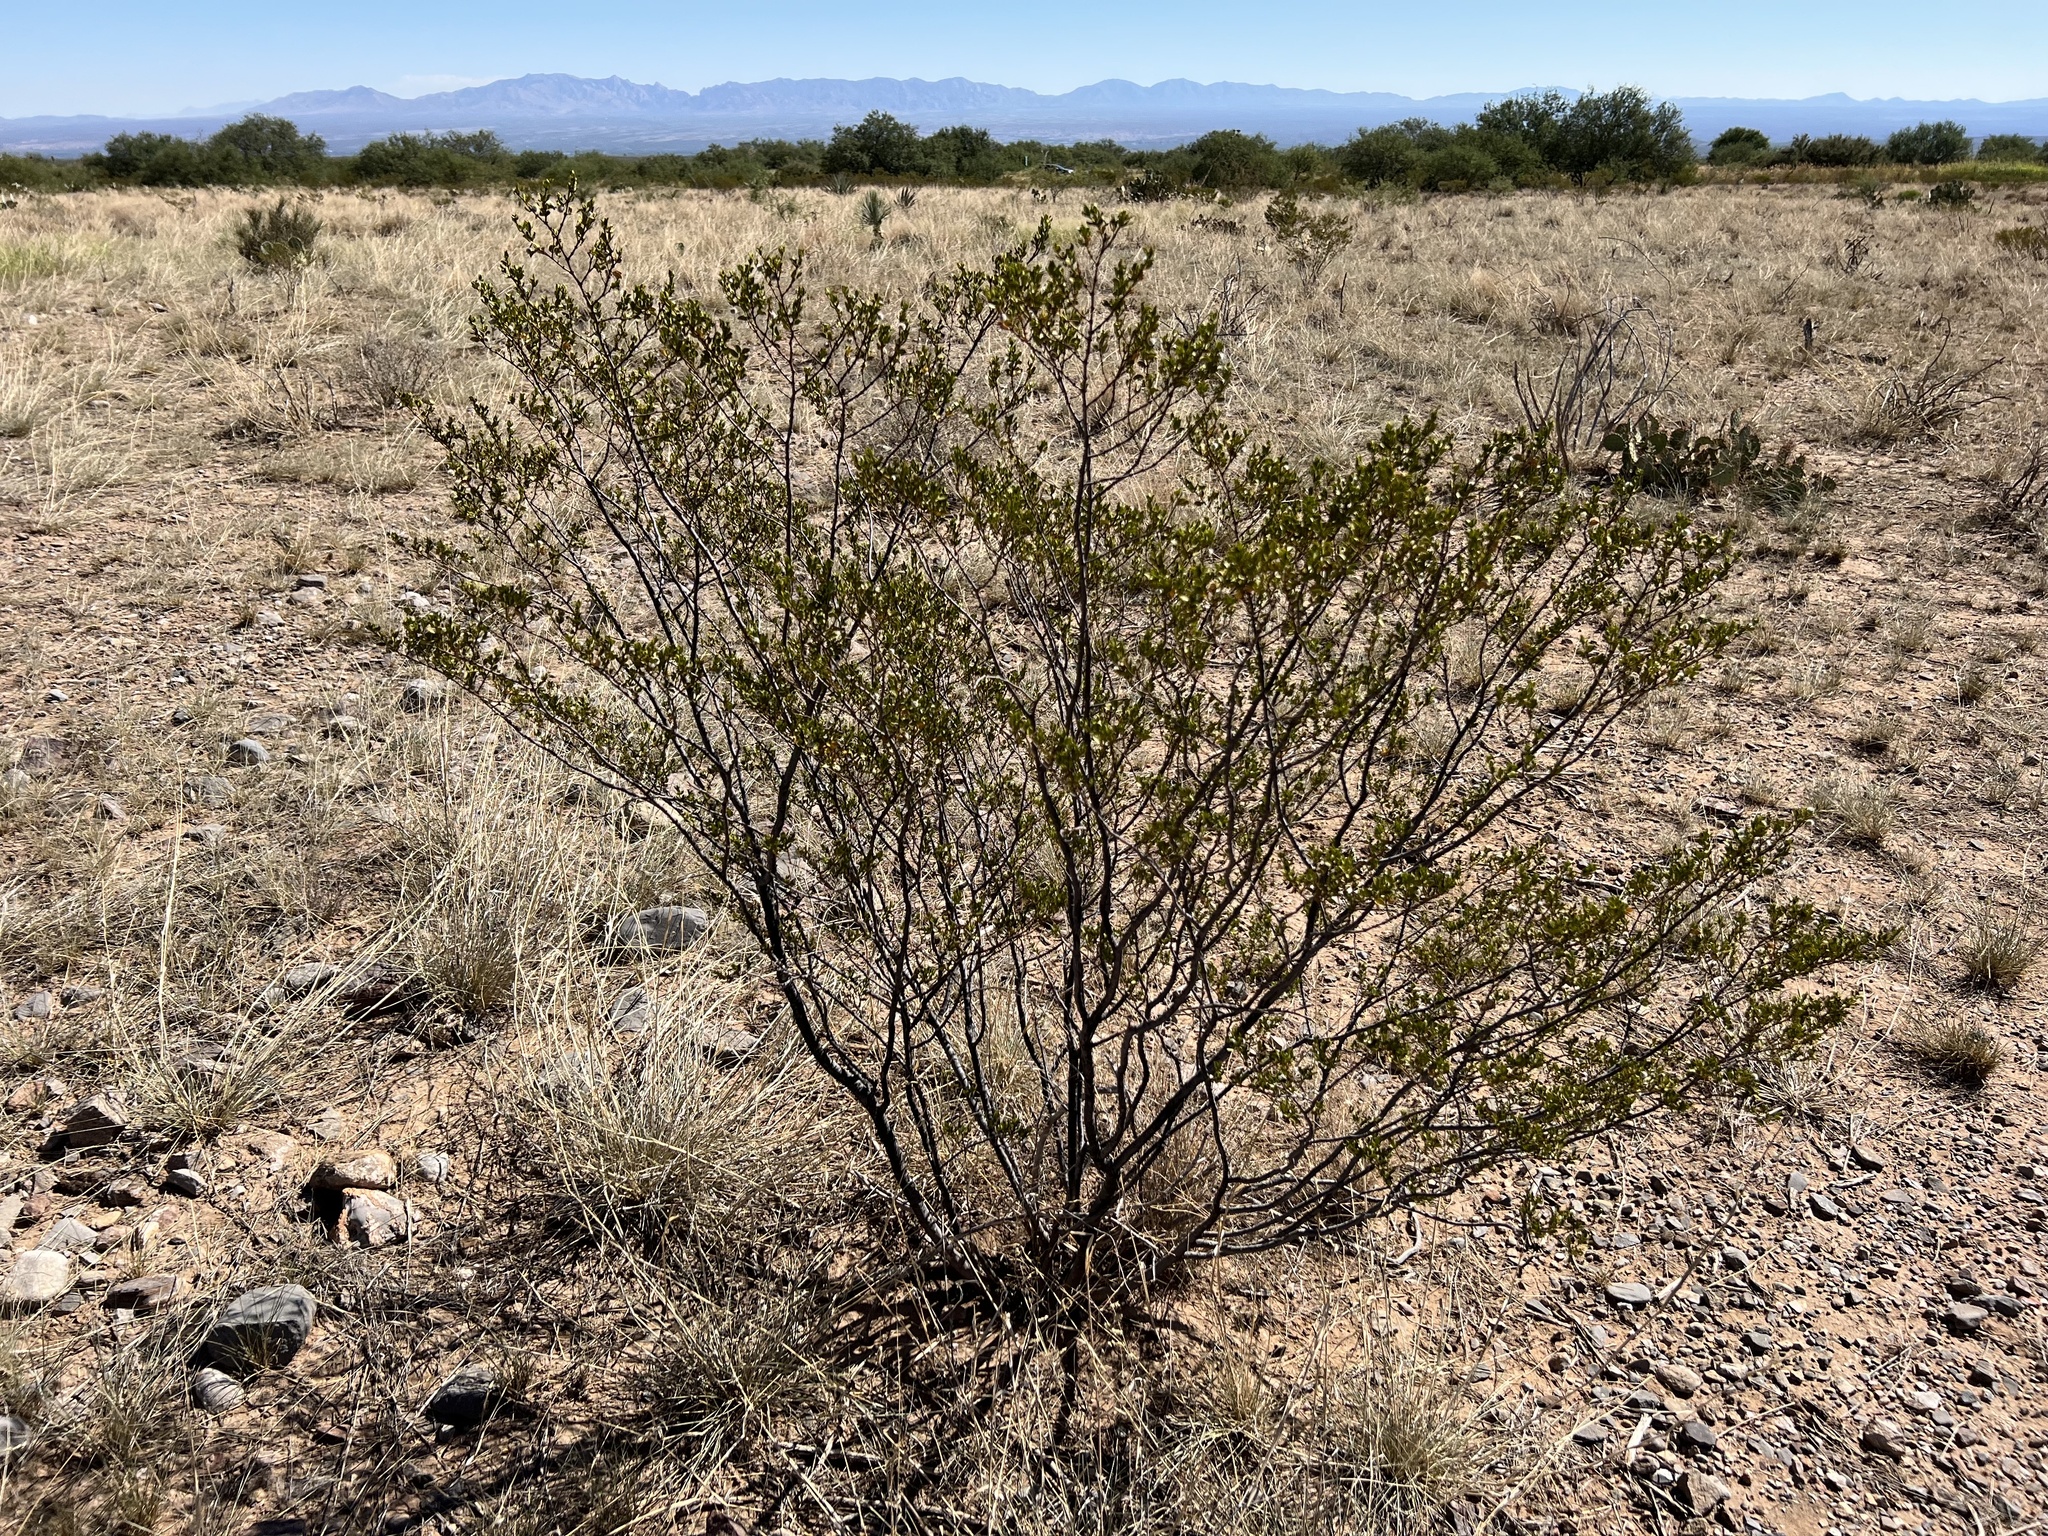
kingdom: Plantae
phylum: Tracheophyta
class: Magnoliopsida
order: Zygophyllales
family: Zygophyllaceae
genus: Larrea
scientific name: Larrea tridentata
